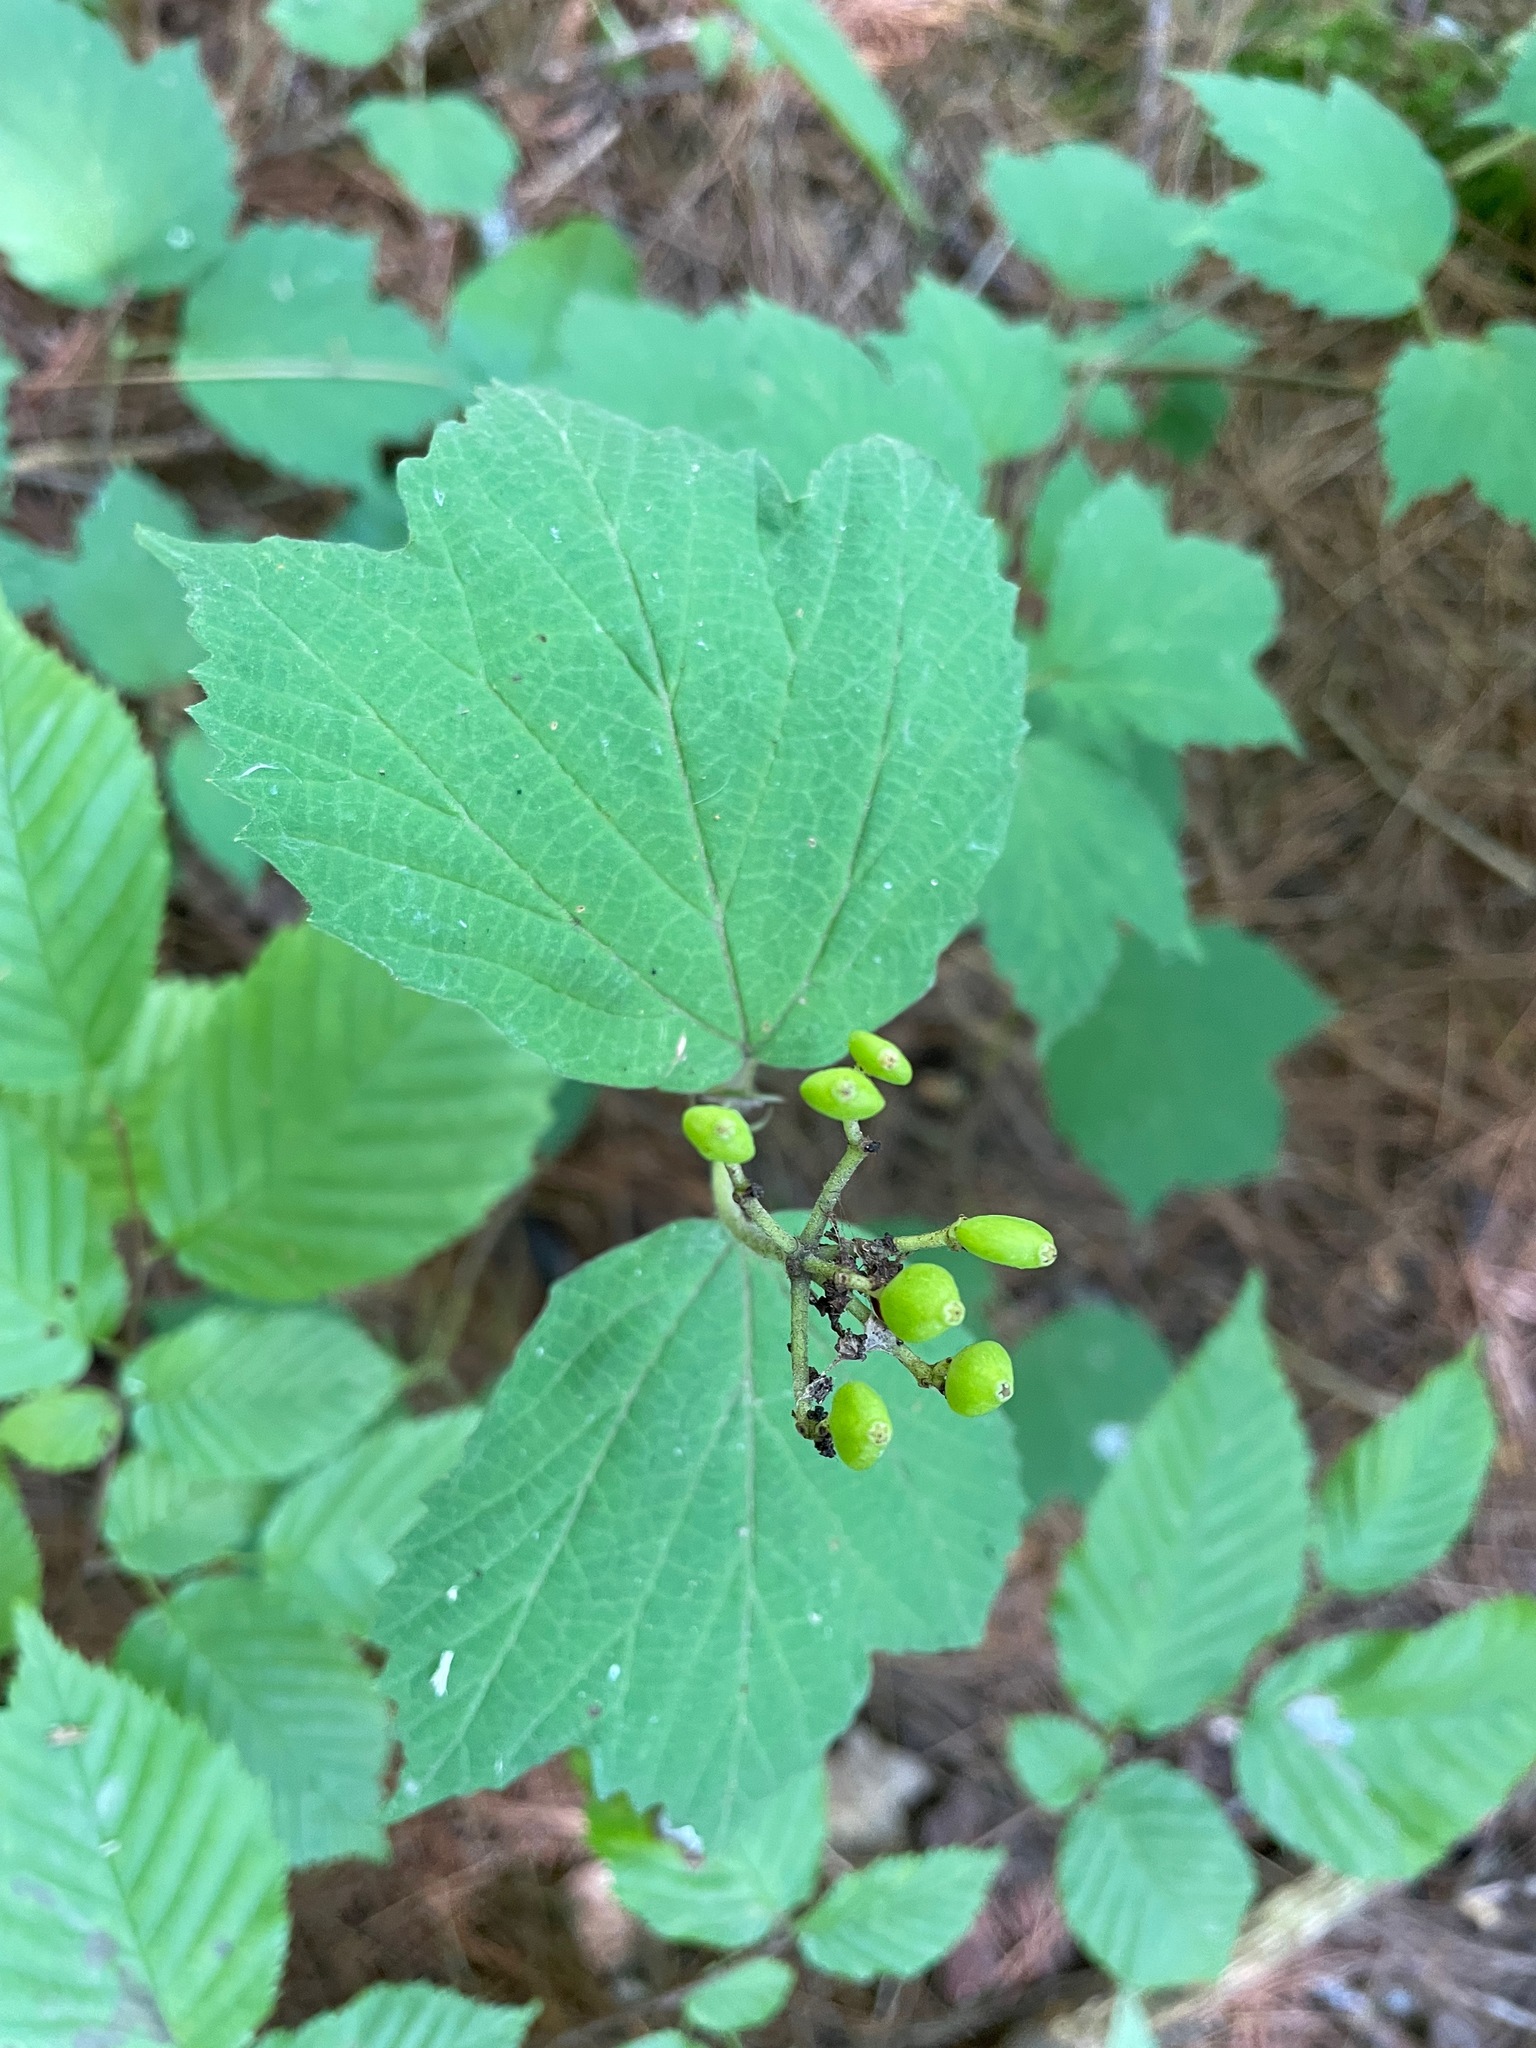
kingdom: Plantae
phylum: Tracheophyta
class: Magnoliopsida
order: Dipsacales
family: Viburnaceae
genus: Viburnum
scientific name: Viburnum acerifolium
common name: Dockmackie
